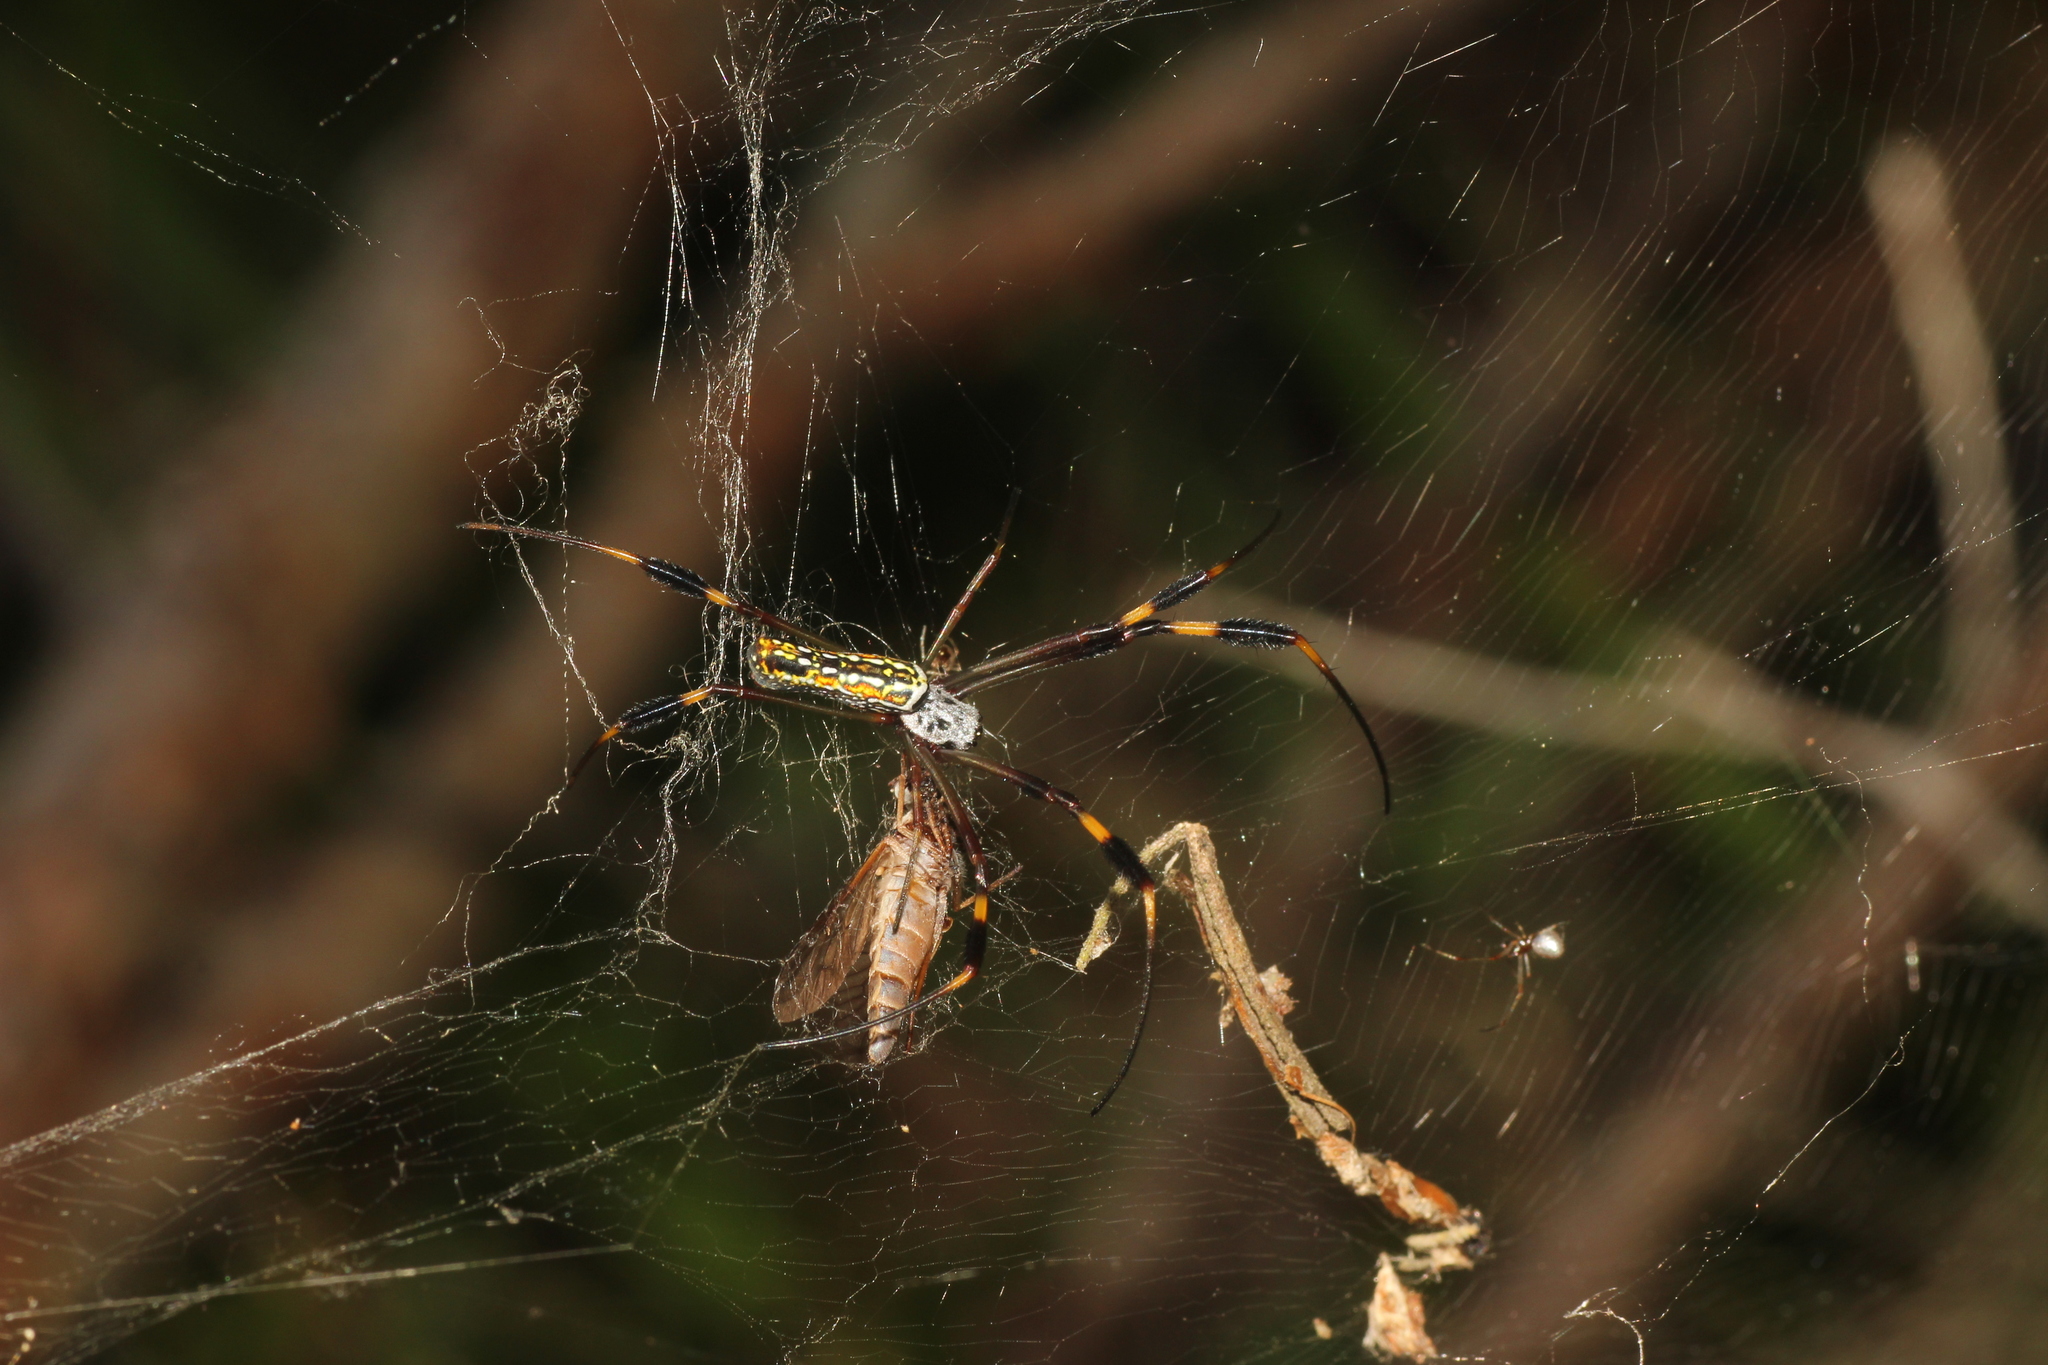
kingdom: Animalia
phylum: Arthropoda
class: Arachnida
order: Araneae
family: Araneidae
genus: Trichonephila
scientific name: Trichonephila clavipes
